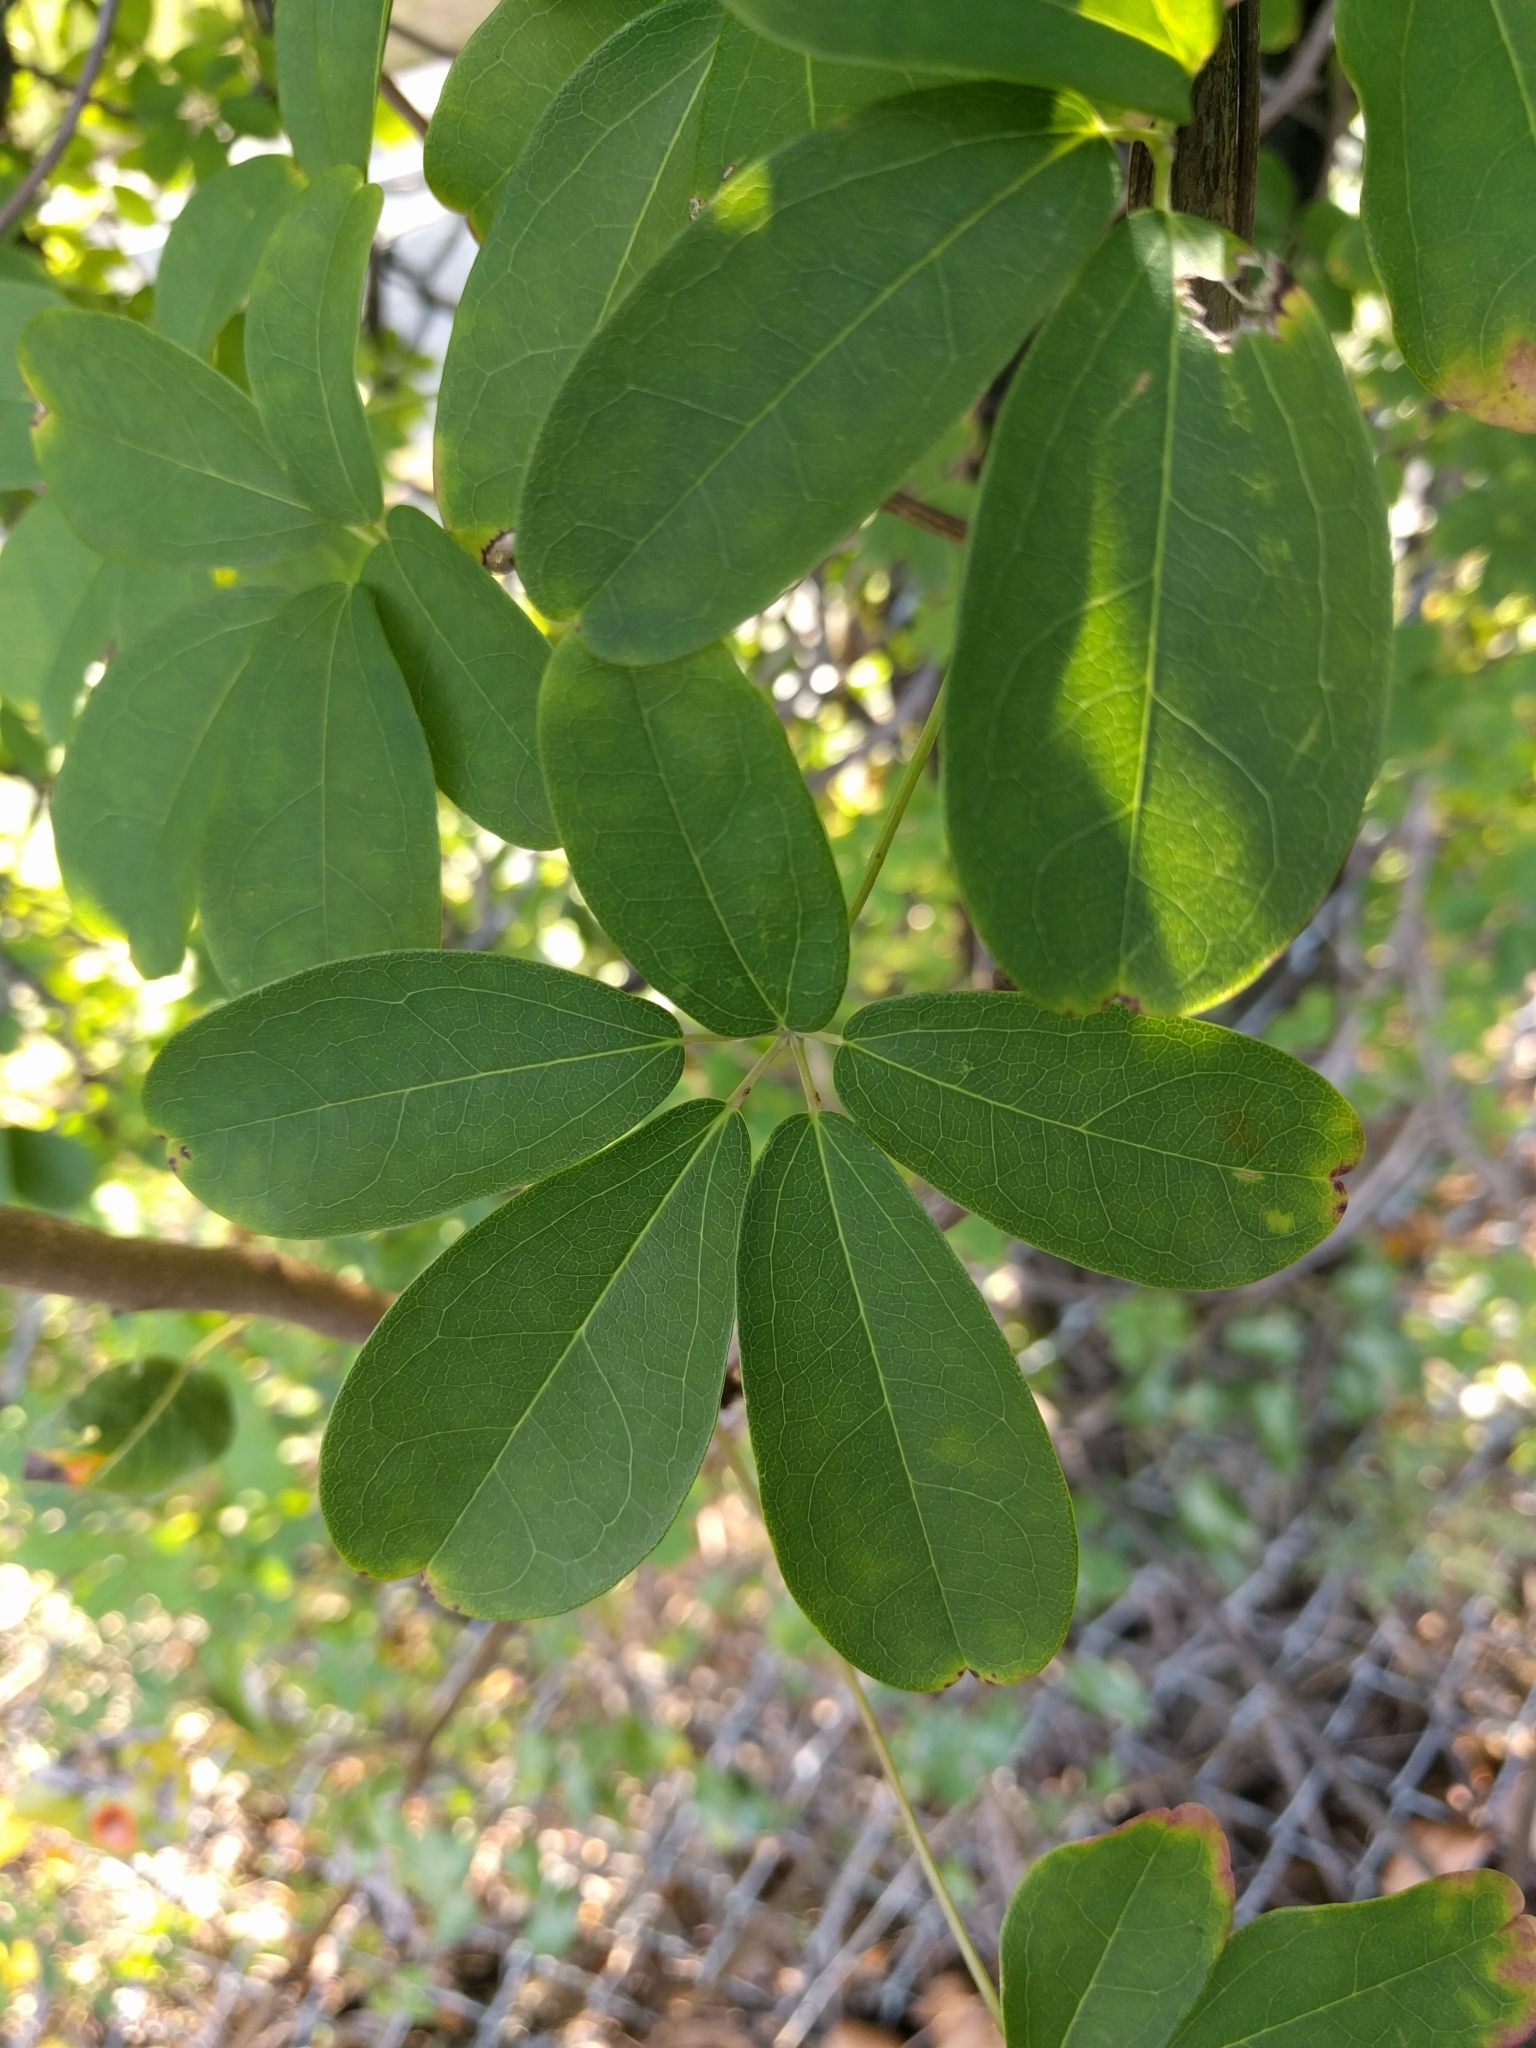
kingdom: Plantae
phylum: Tracheophyta
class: Magnoliopsida
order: Ranunculales
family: Lardizabalaceae
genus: Akebia
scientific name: Akebia quinata
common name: Five-leaf akebia
